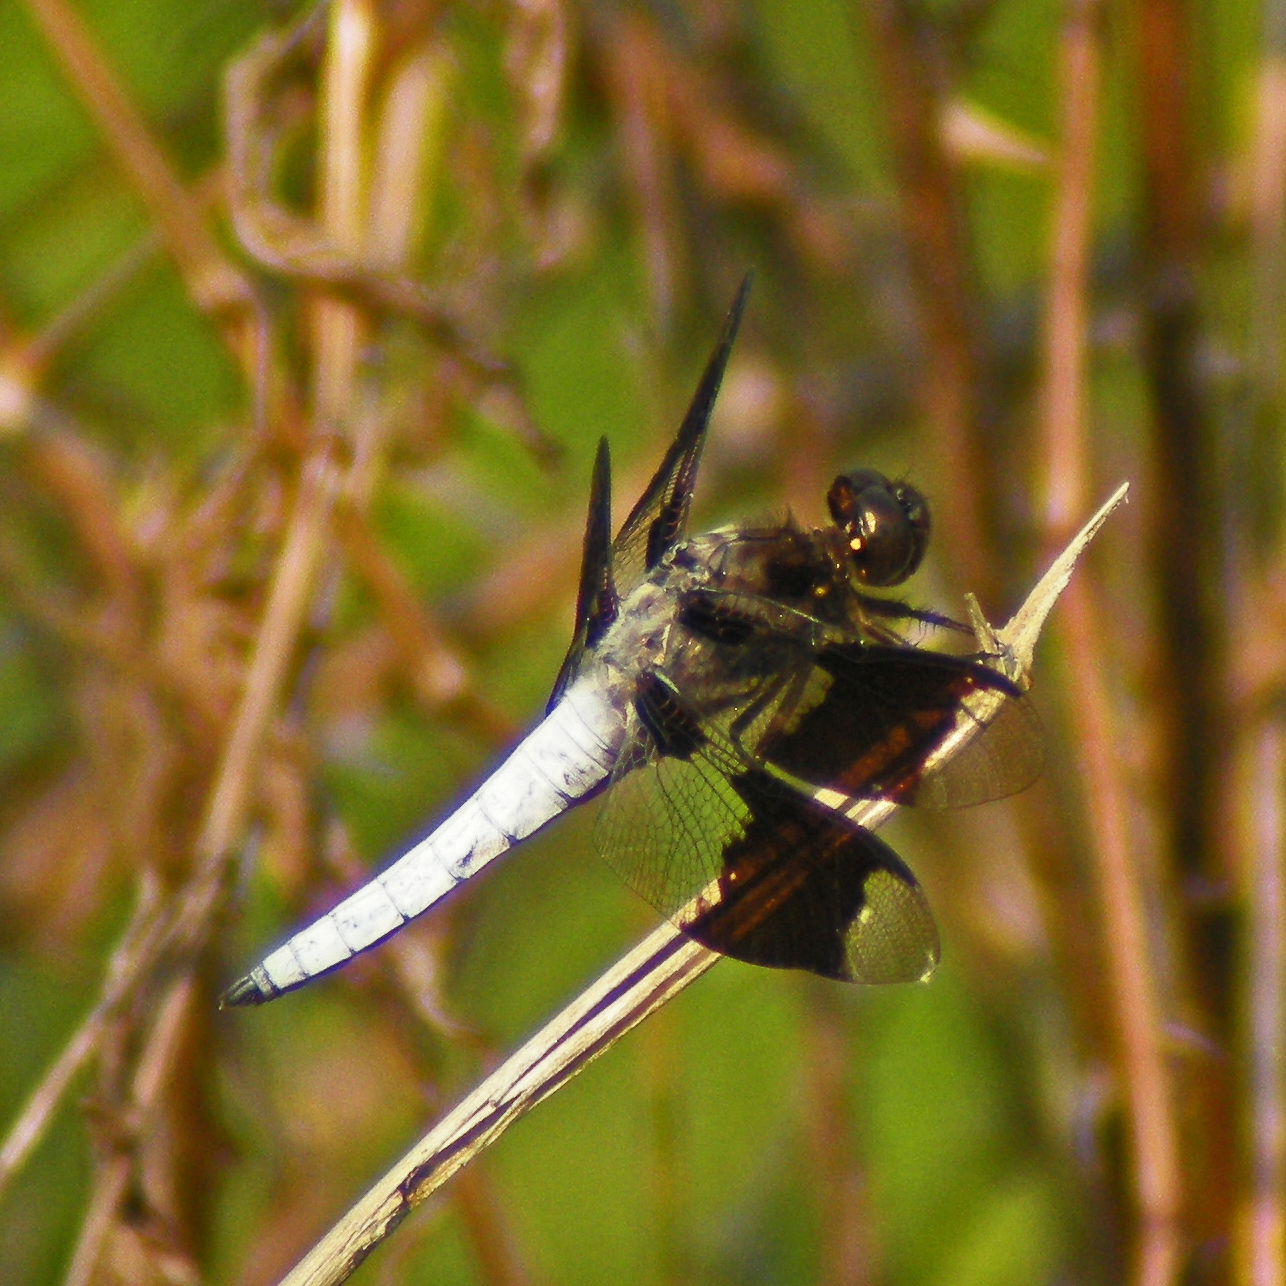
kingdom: Animalia
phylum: Arthropoda
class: Insecta
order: Odonata
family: Libellulidae
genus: Plathemis
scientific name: Plathemis lydia
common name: Common whitetail
